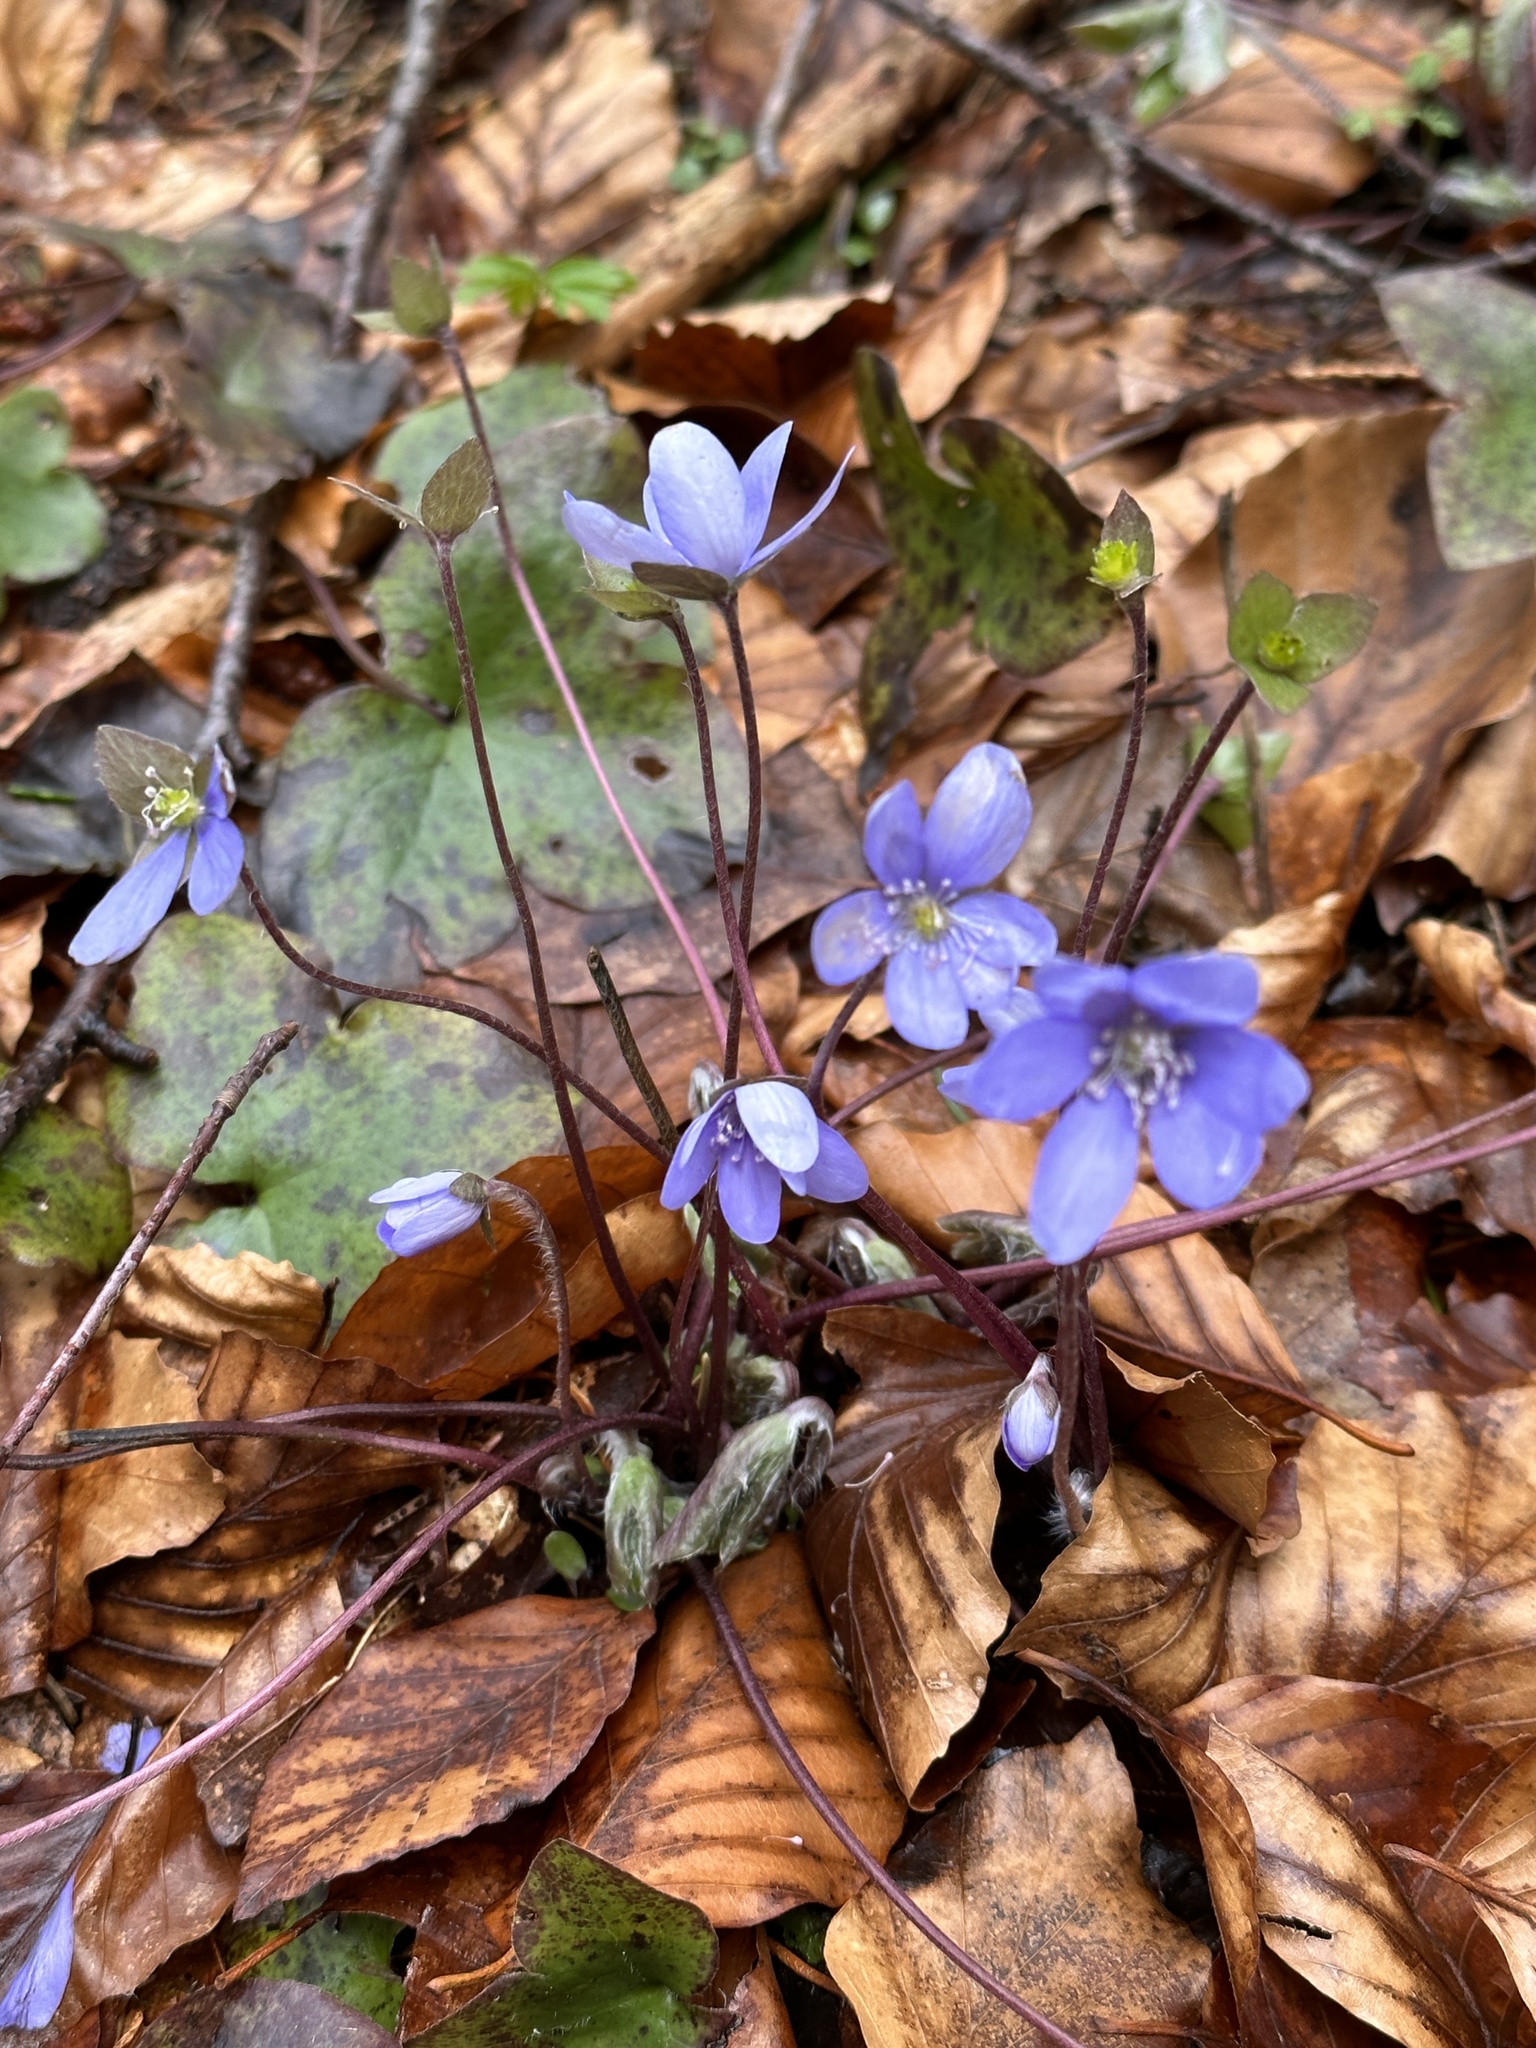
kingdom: Plantae
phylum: Tracheophyta
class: Magnoliopsida
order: Ranunculales
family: Ranunculaceae
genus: Hepatica
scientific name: Hepatica nobilis
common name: Liverleaf
